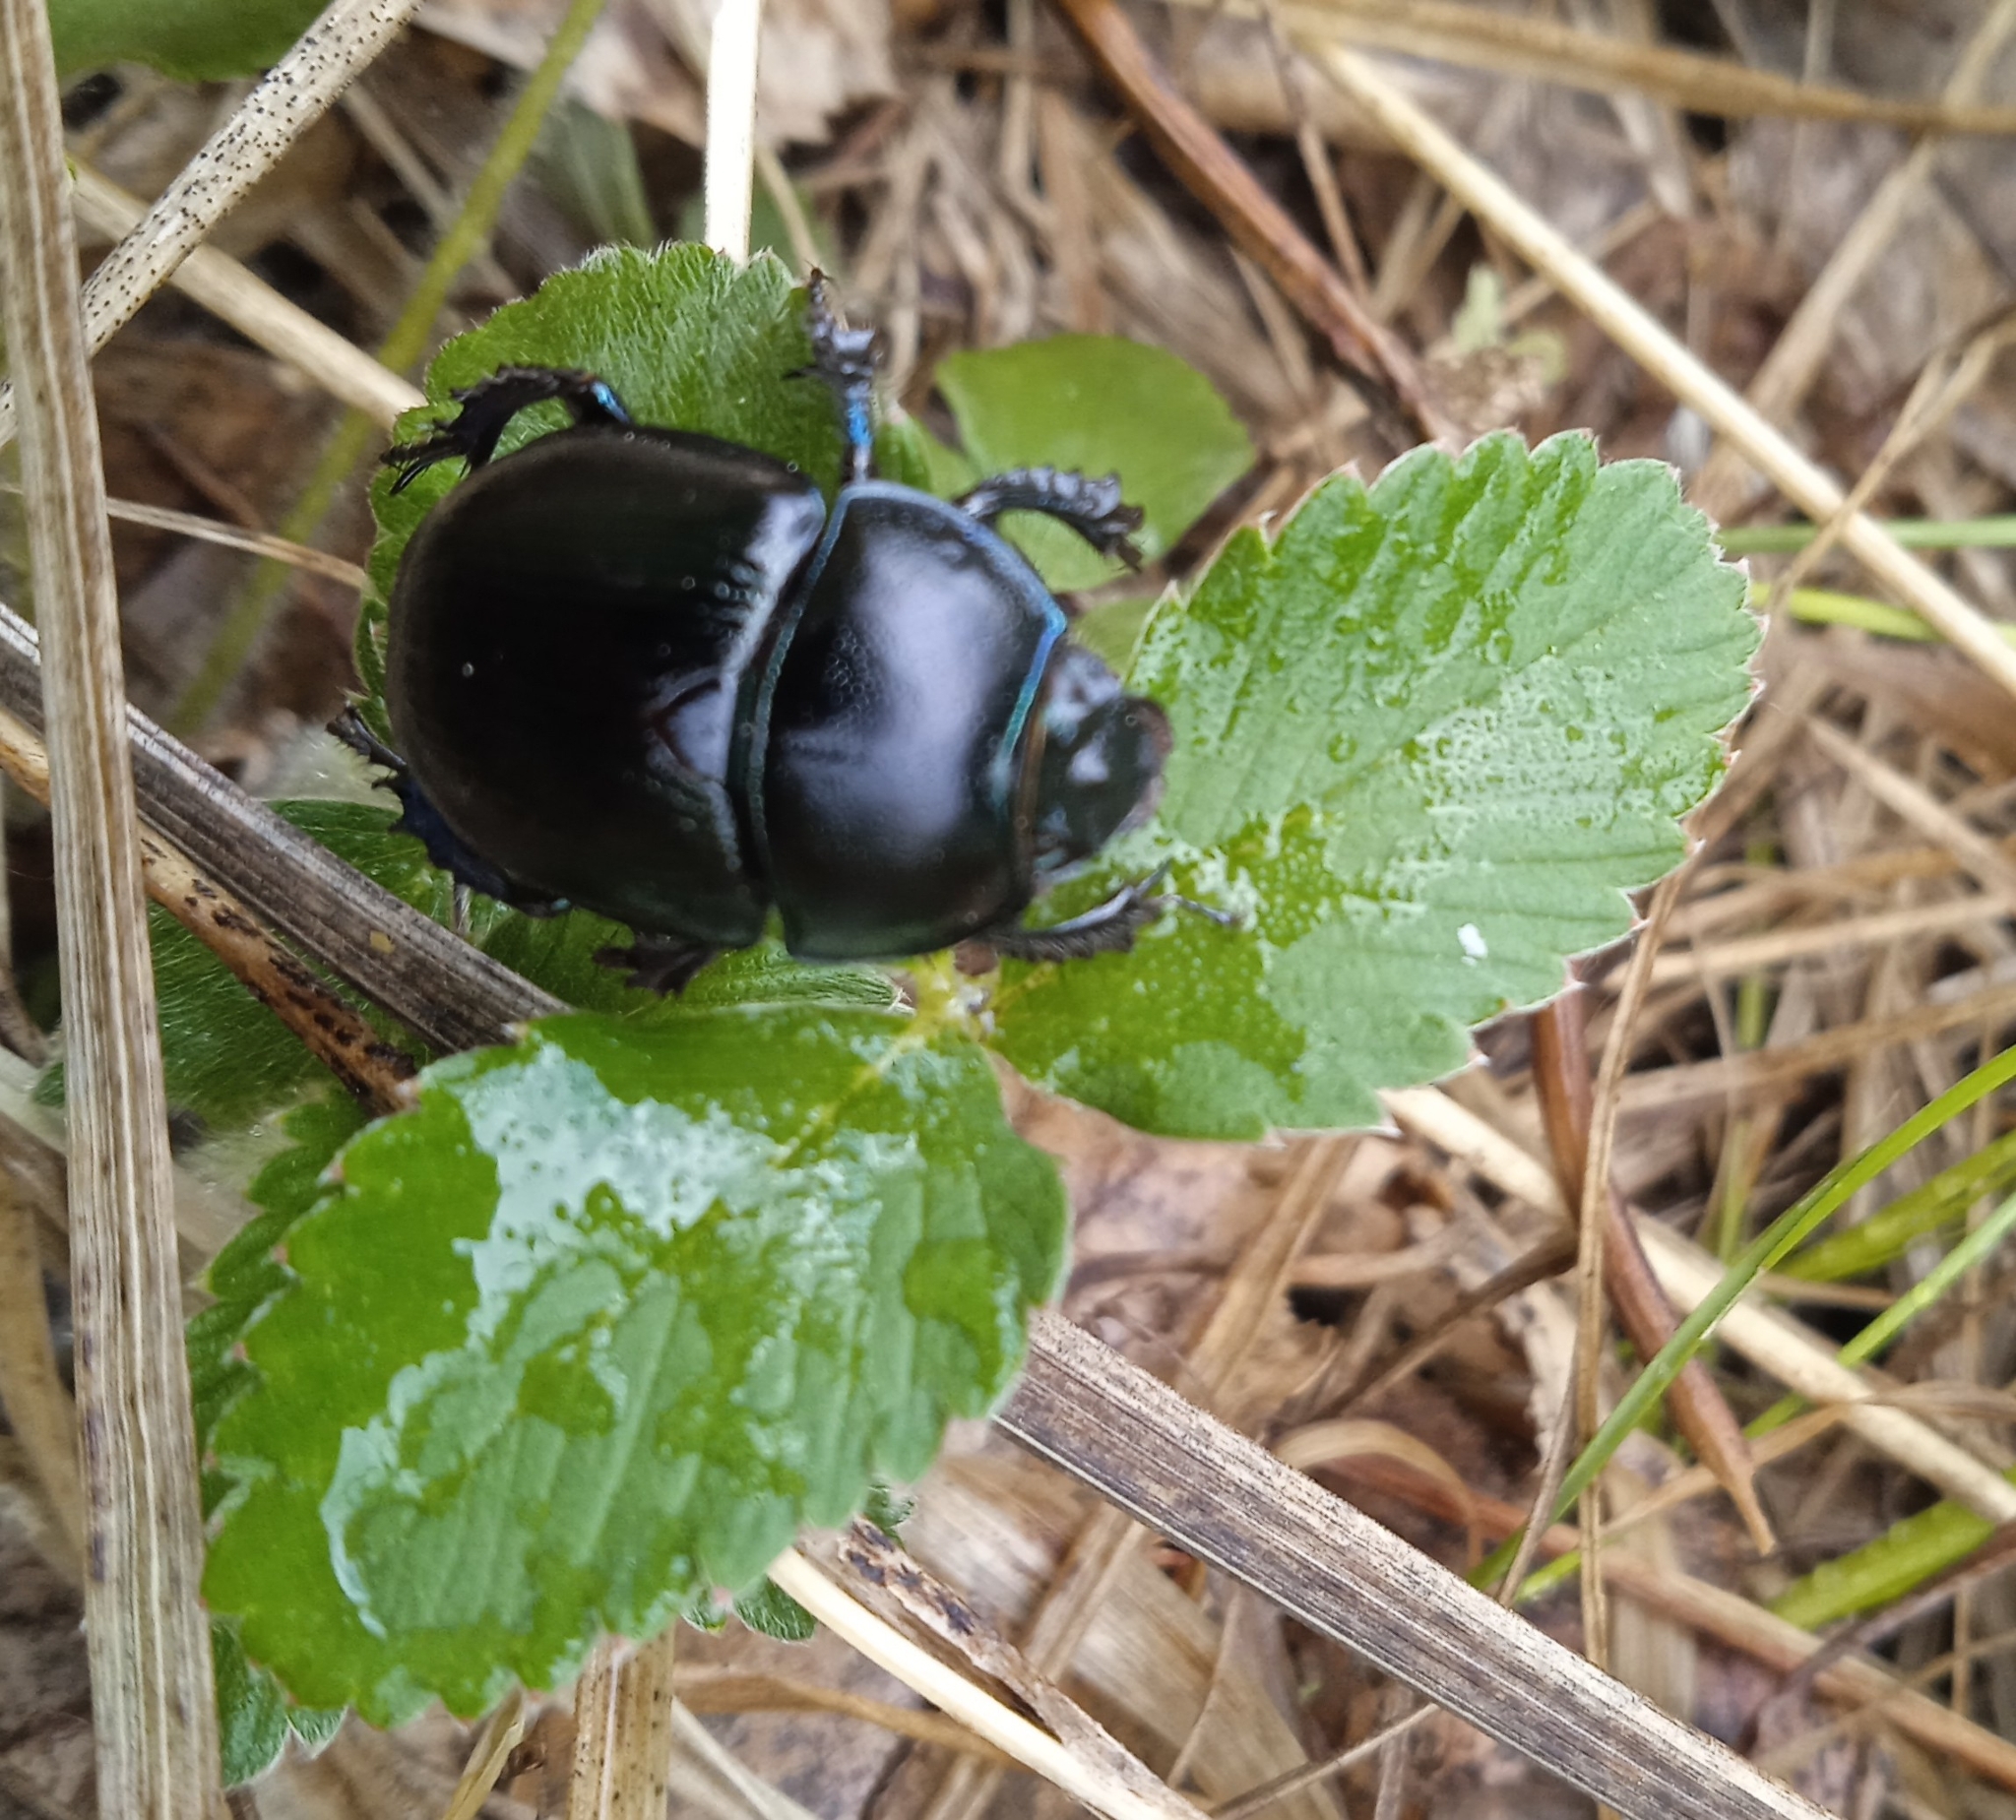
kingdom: Animalia
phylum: Arthropoda
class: Insecta
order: Coleoptera
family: Geotrupidae
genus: Anoplotrupes
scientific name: Anoplotrupes stercorosus
